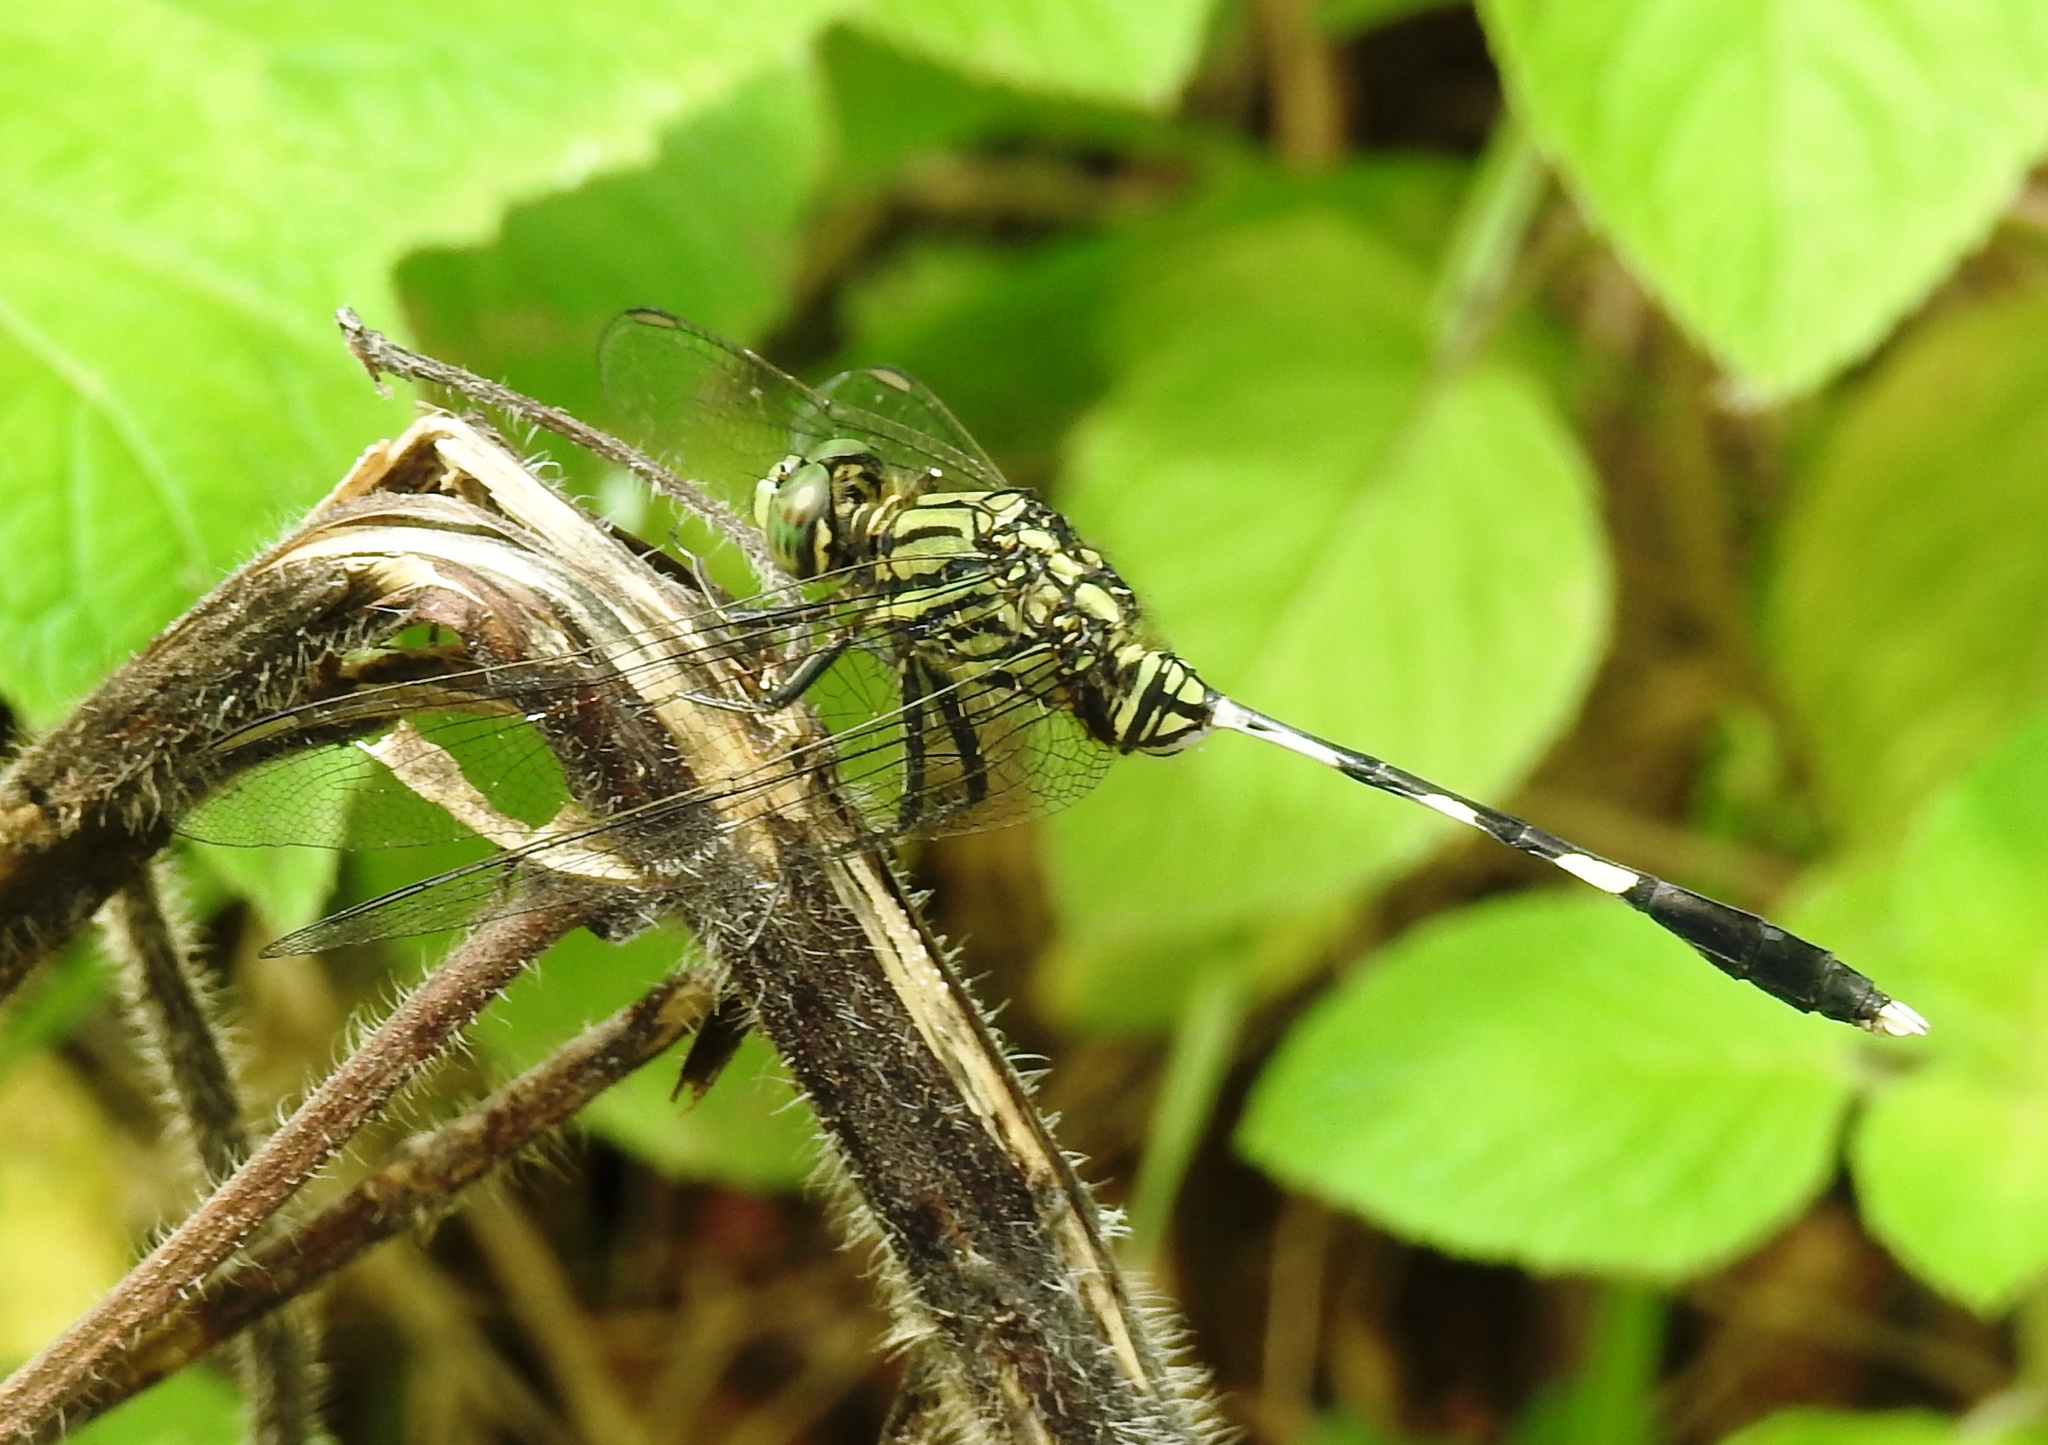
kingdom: Animalia
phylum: Arthropoda
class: Insecta
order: Odonata
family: Libellulidae
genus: Orthetrum
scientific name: Orthetrum sabina
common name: Slender skimmer
